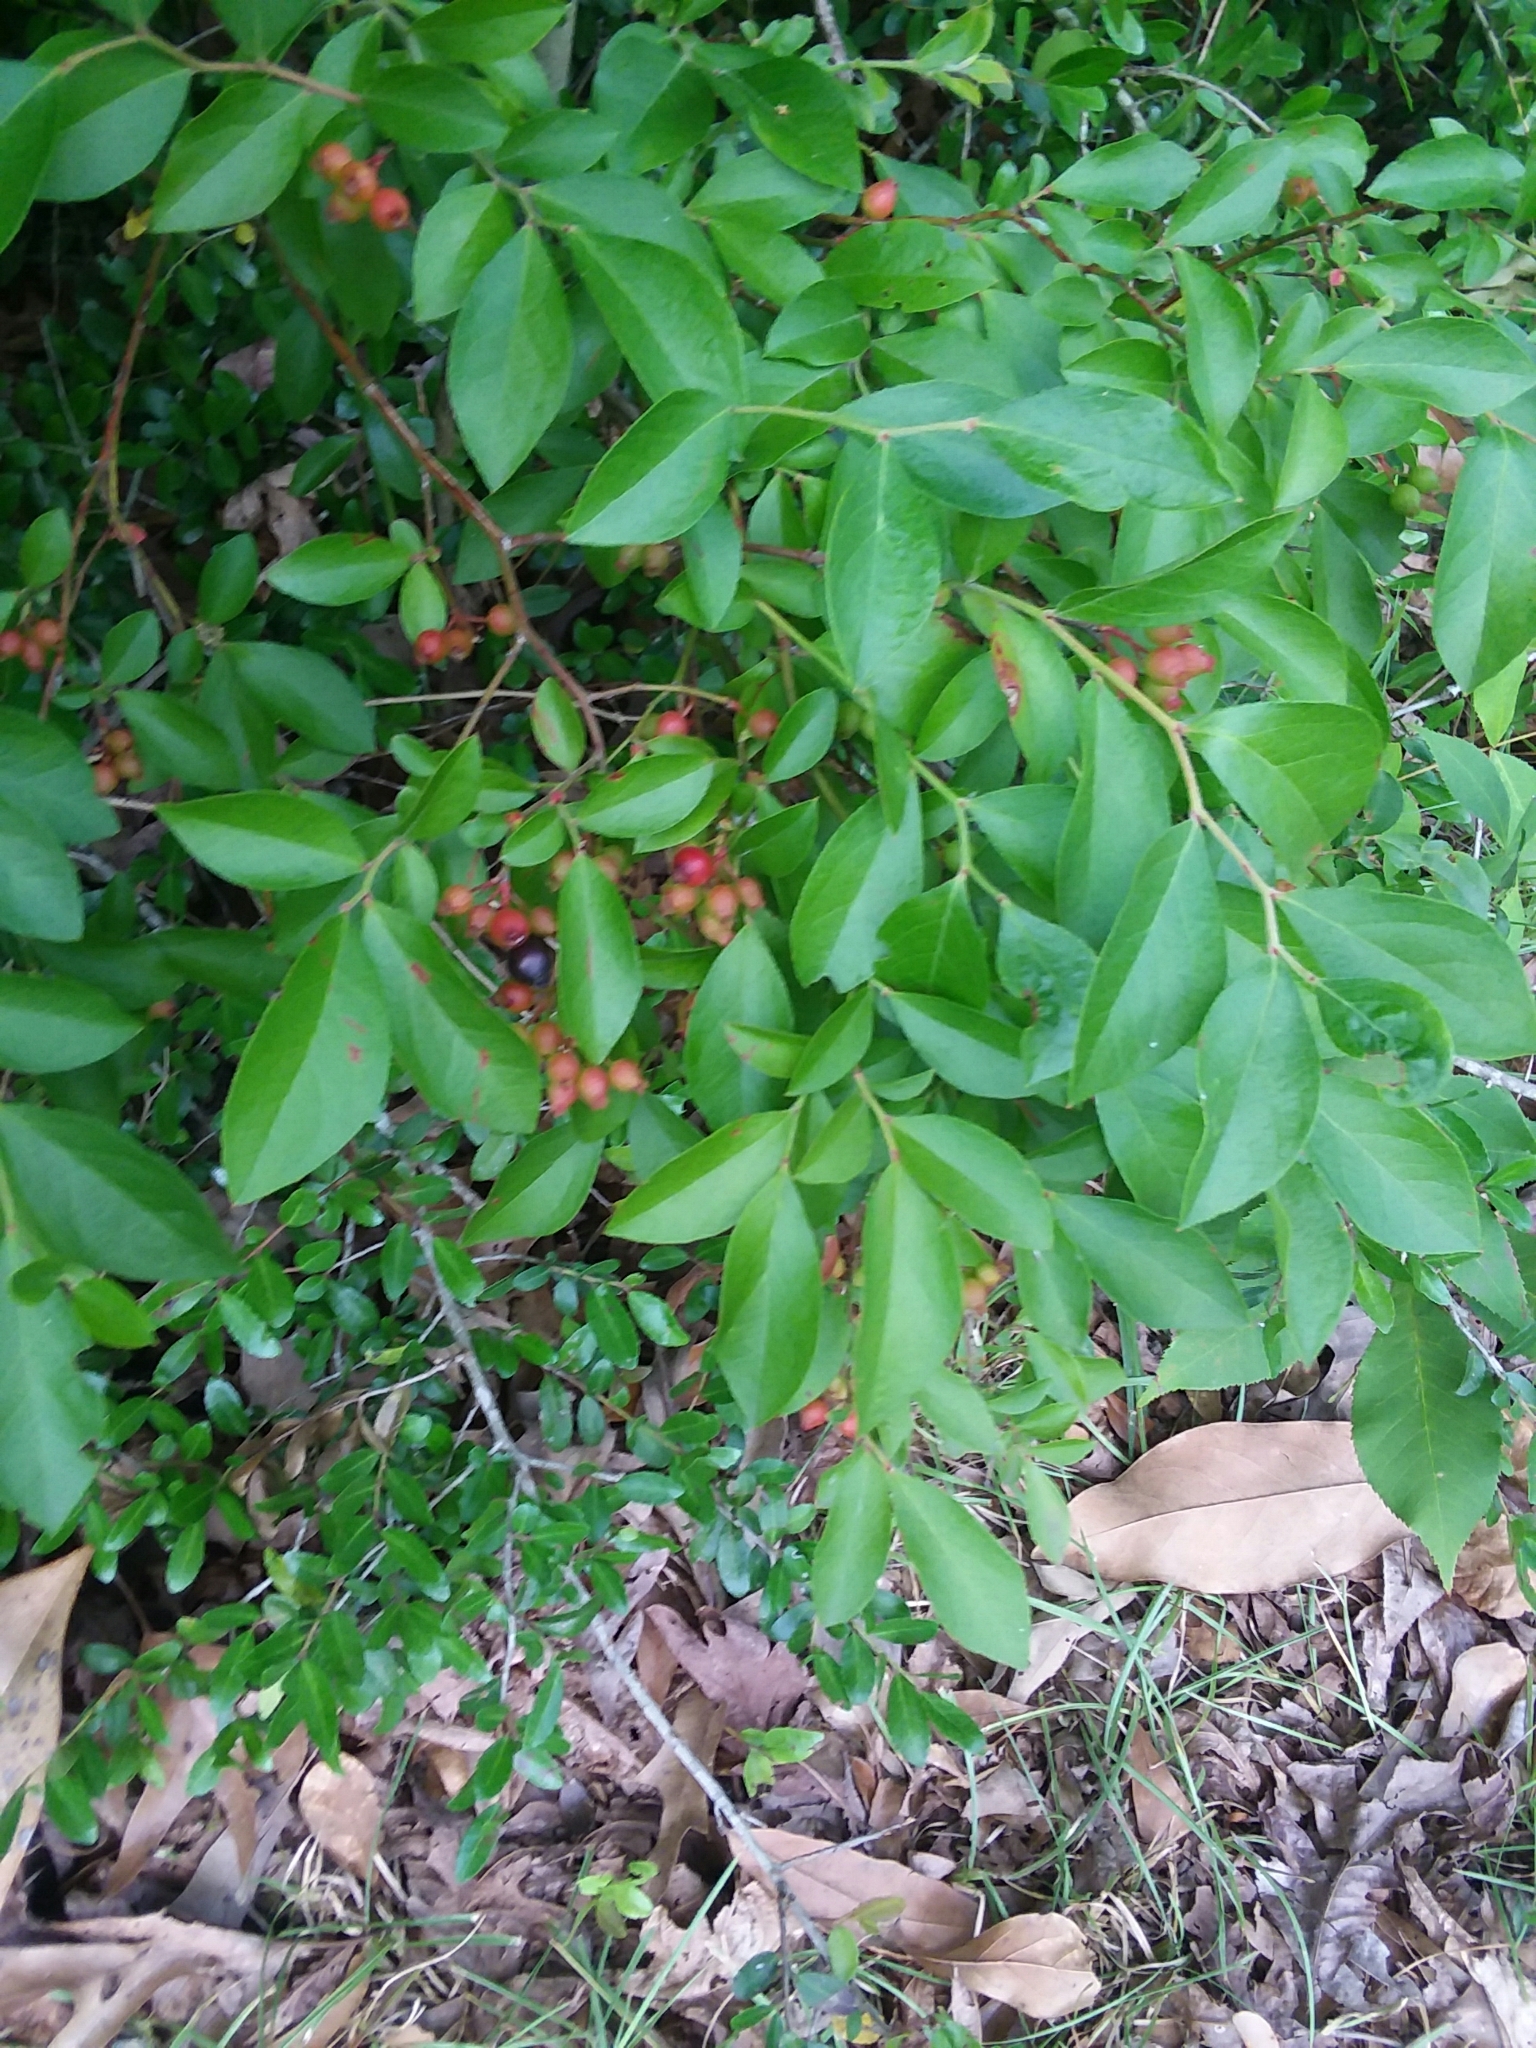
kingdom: Plantae
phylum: Tracheophyta
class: Magnoliopsida
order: Ericales
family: Ericaceae
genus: Vaccinium
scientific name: Vaccinium corymbosum
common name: Blueberry
